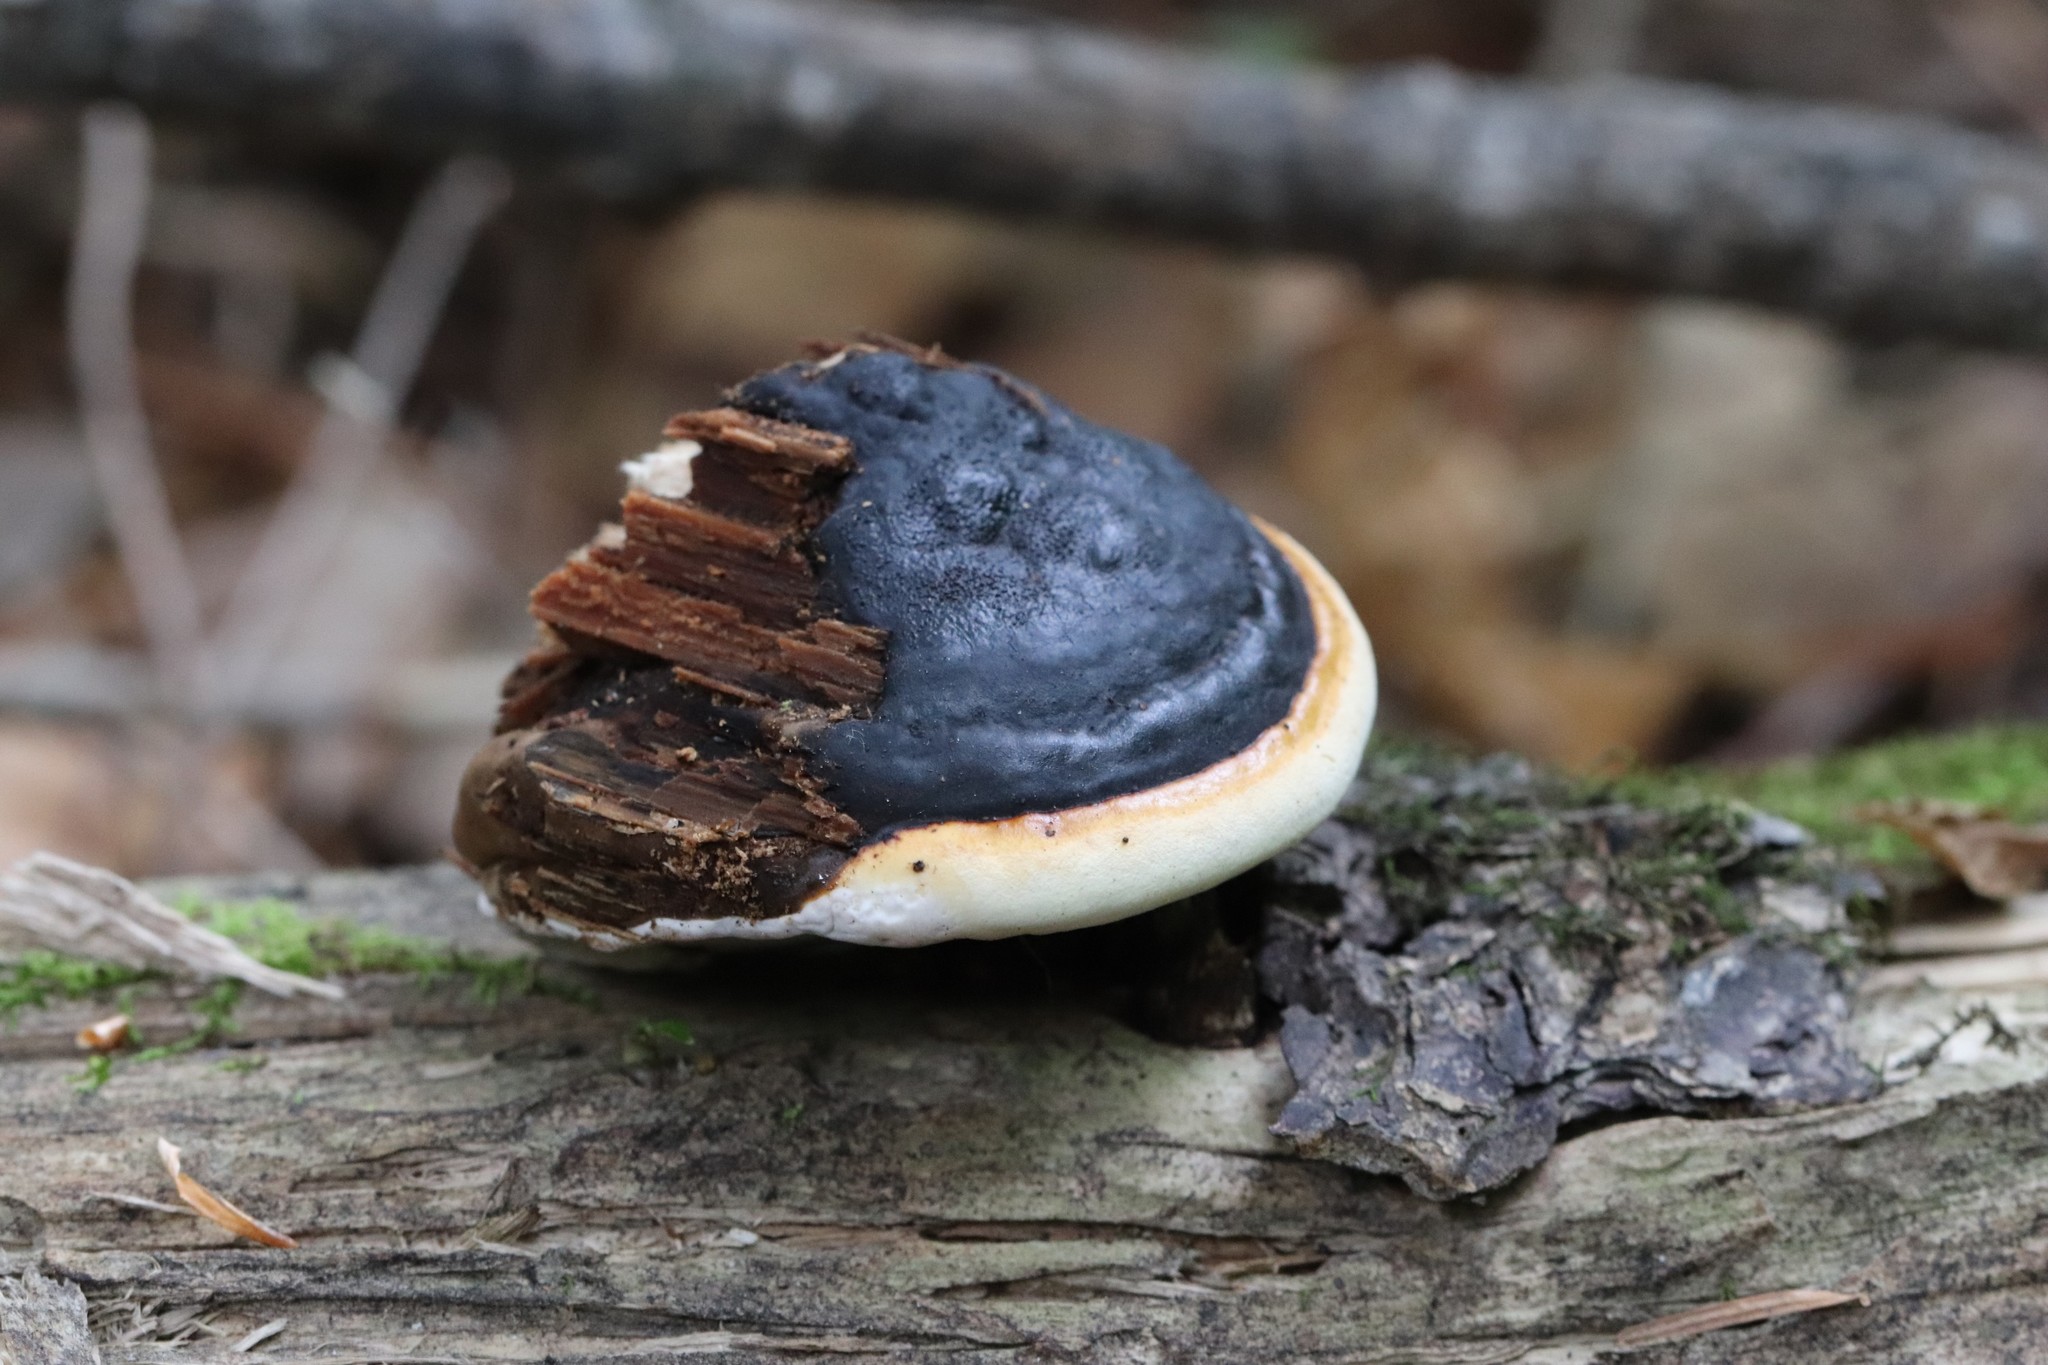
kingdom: Fungi
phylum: Basidiomycota
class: Agaricomycetes
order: Polyporales
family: Fomitopsidaceae
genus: Fomitopsis
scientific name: Fomitopsis pinicola
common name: Red-belted bracket
